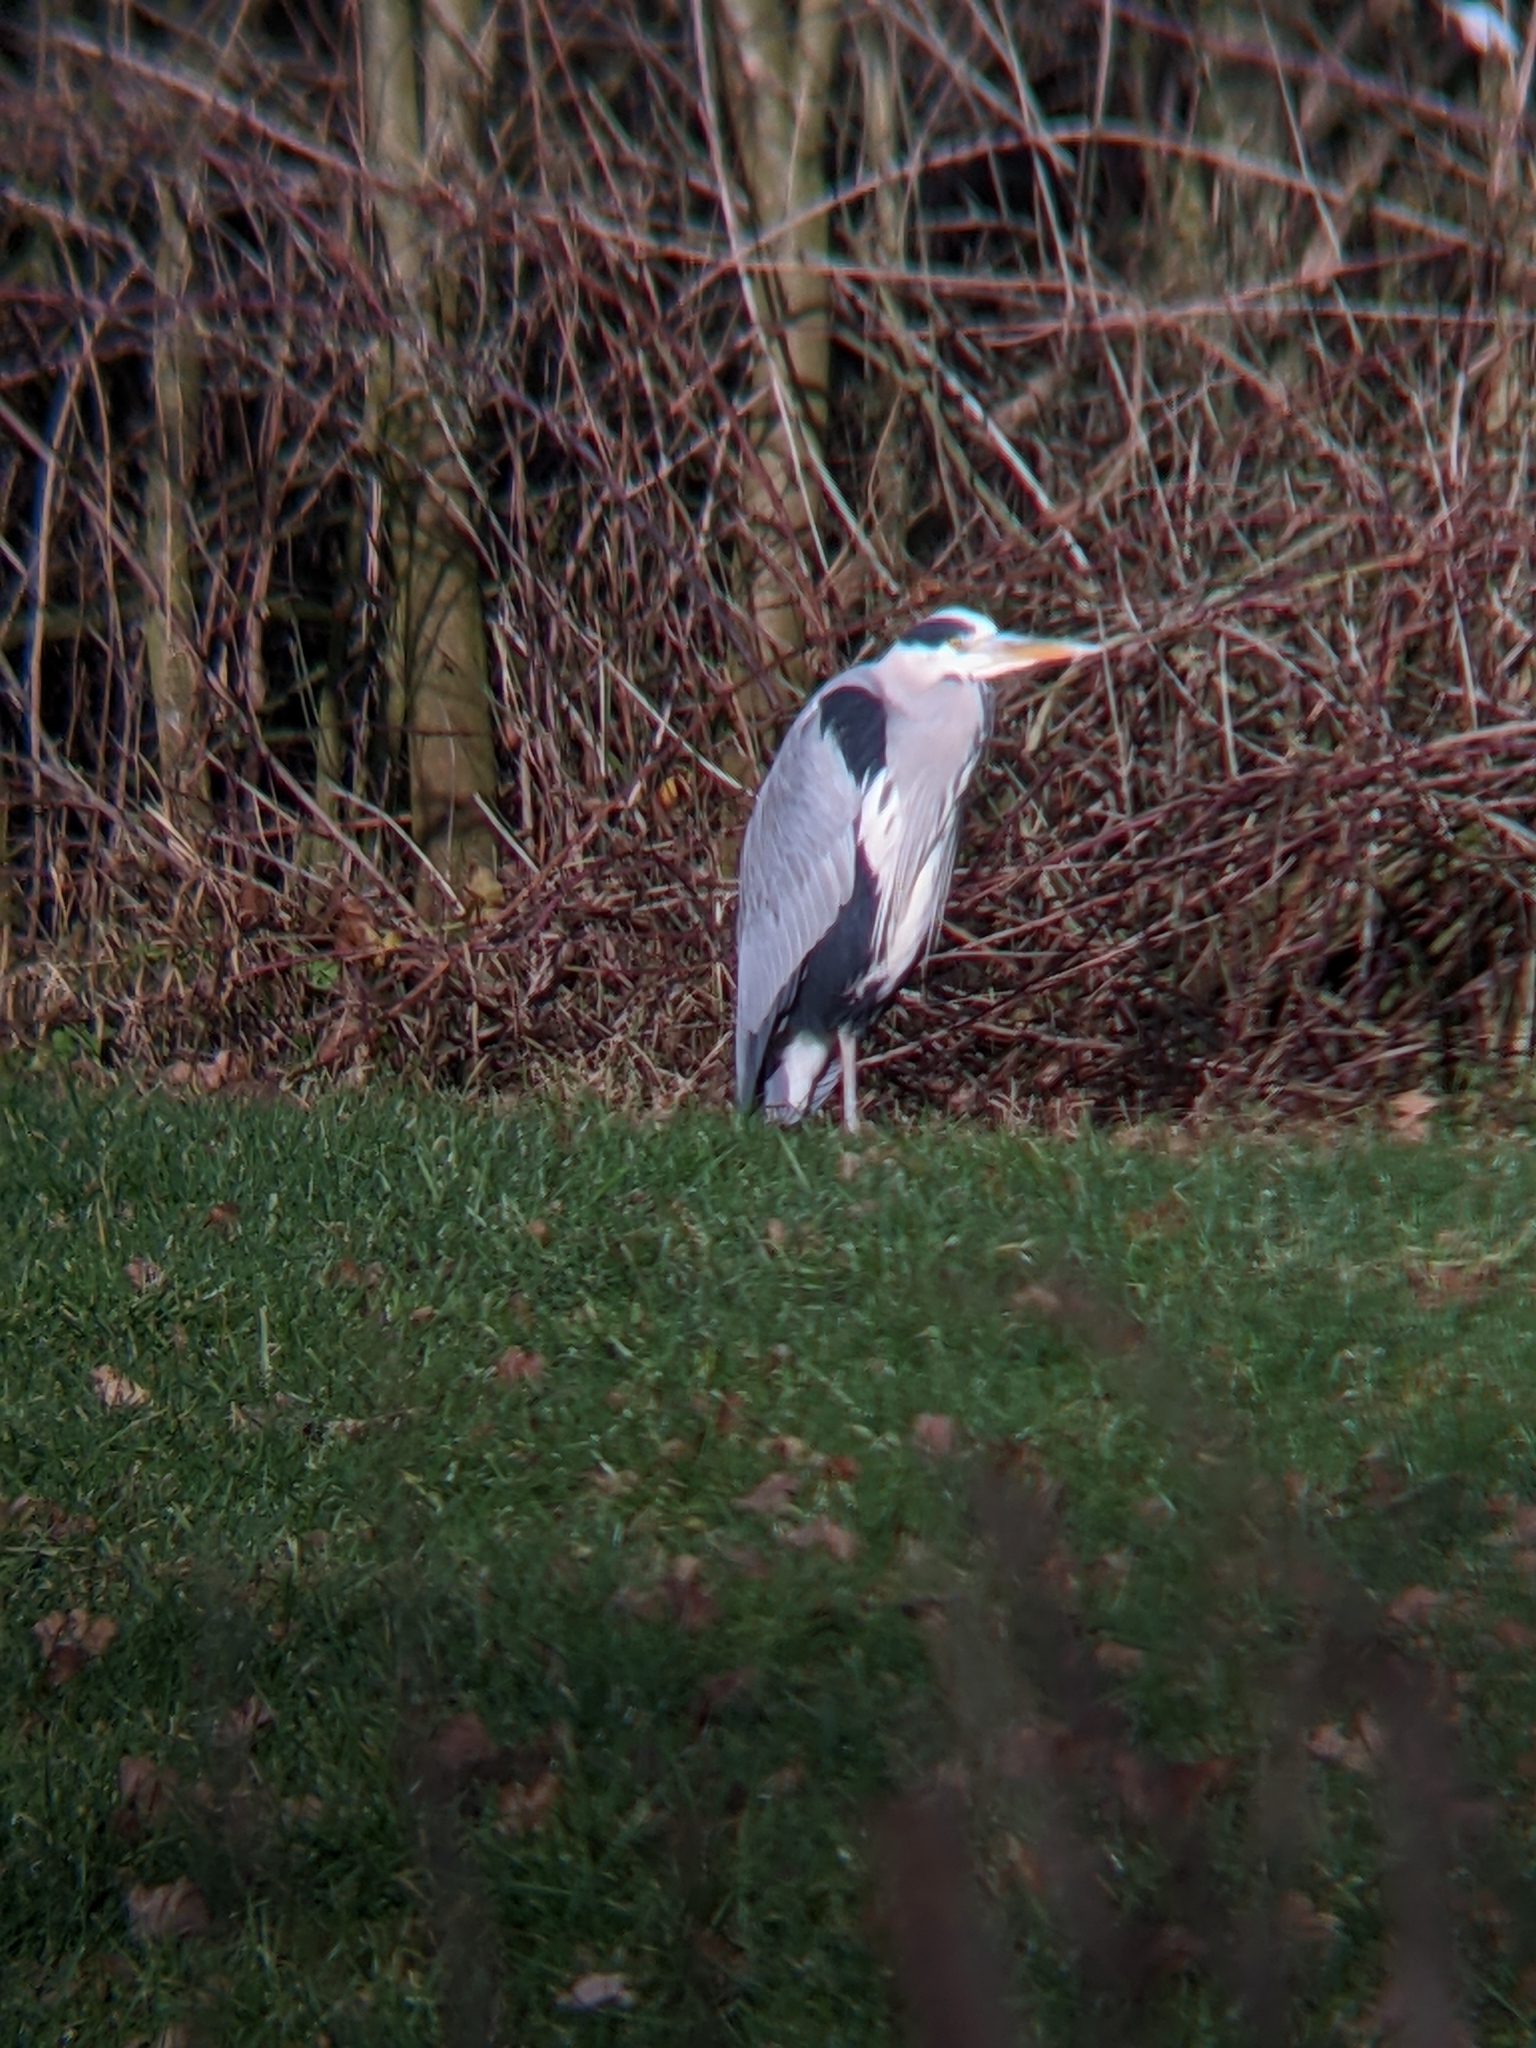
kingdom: Animalia
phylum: Chordata
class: Aves
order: Pelecaniformes
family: Ardeidae
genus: Ardea
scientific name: Ardea cinerea
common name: Grey heron
